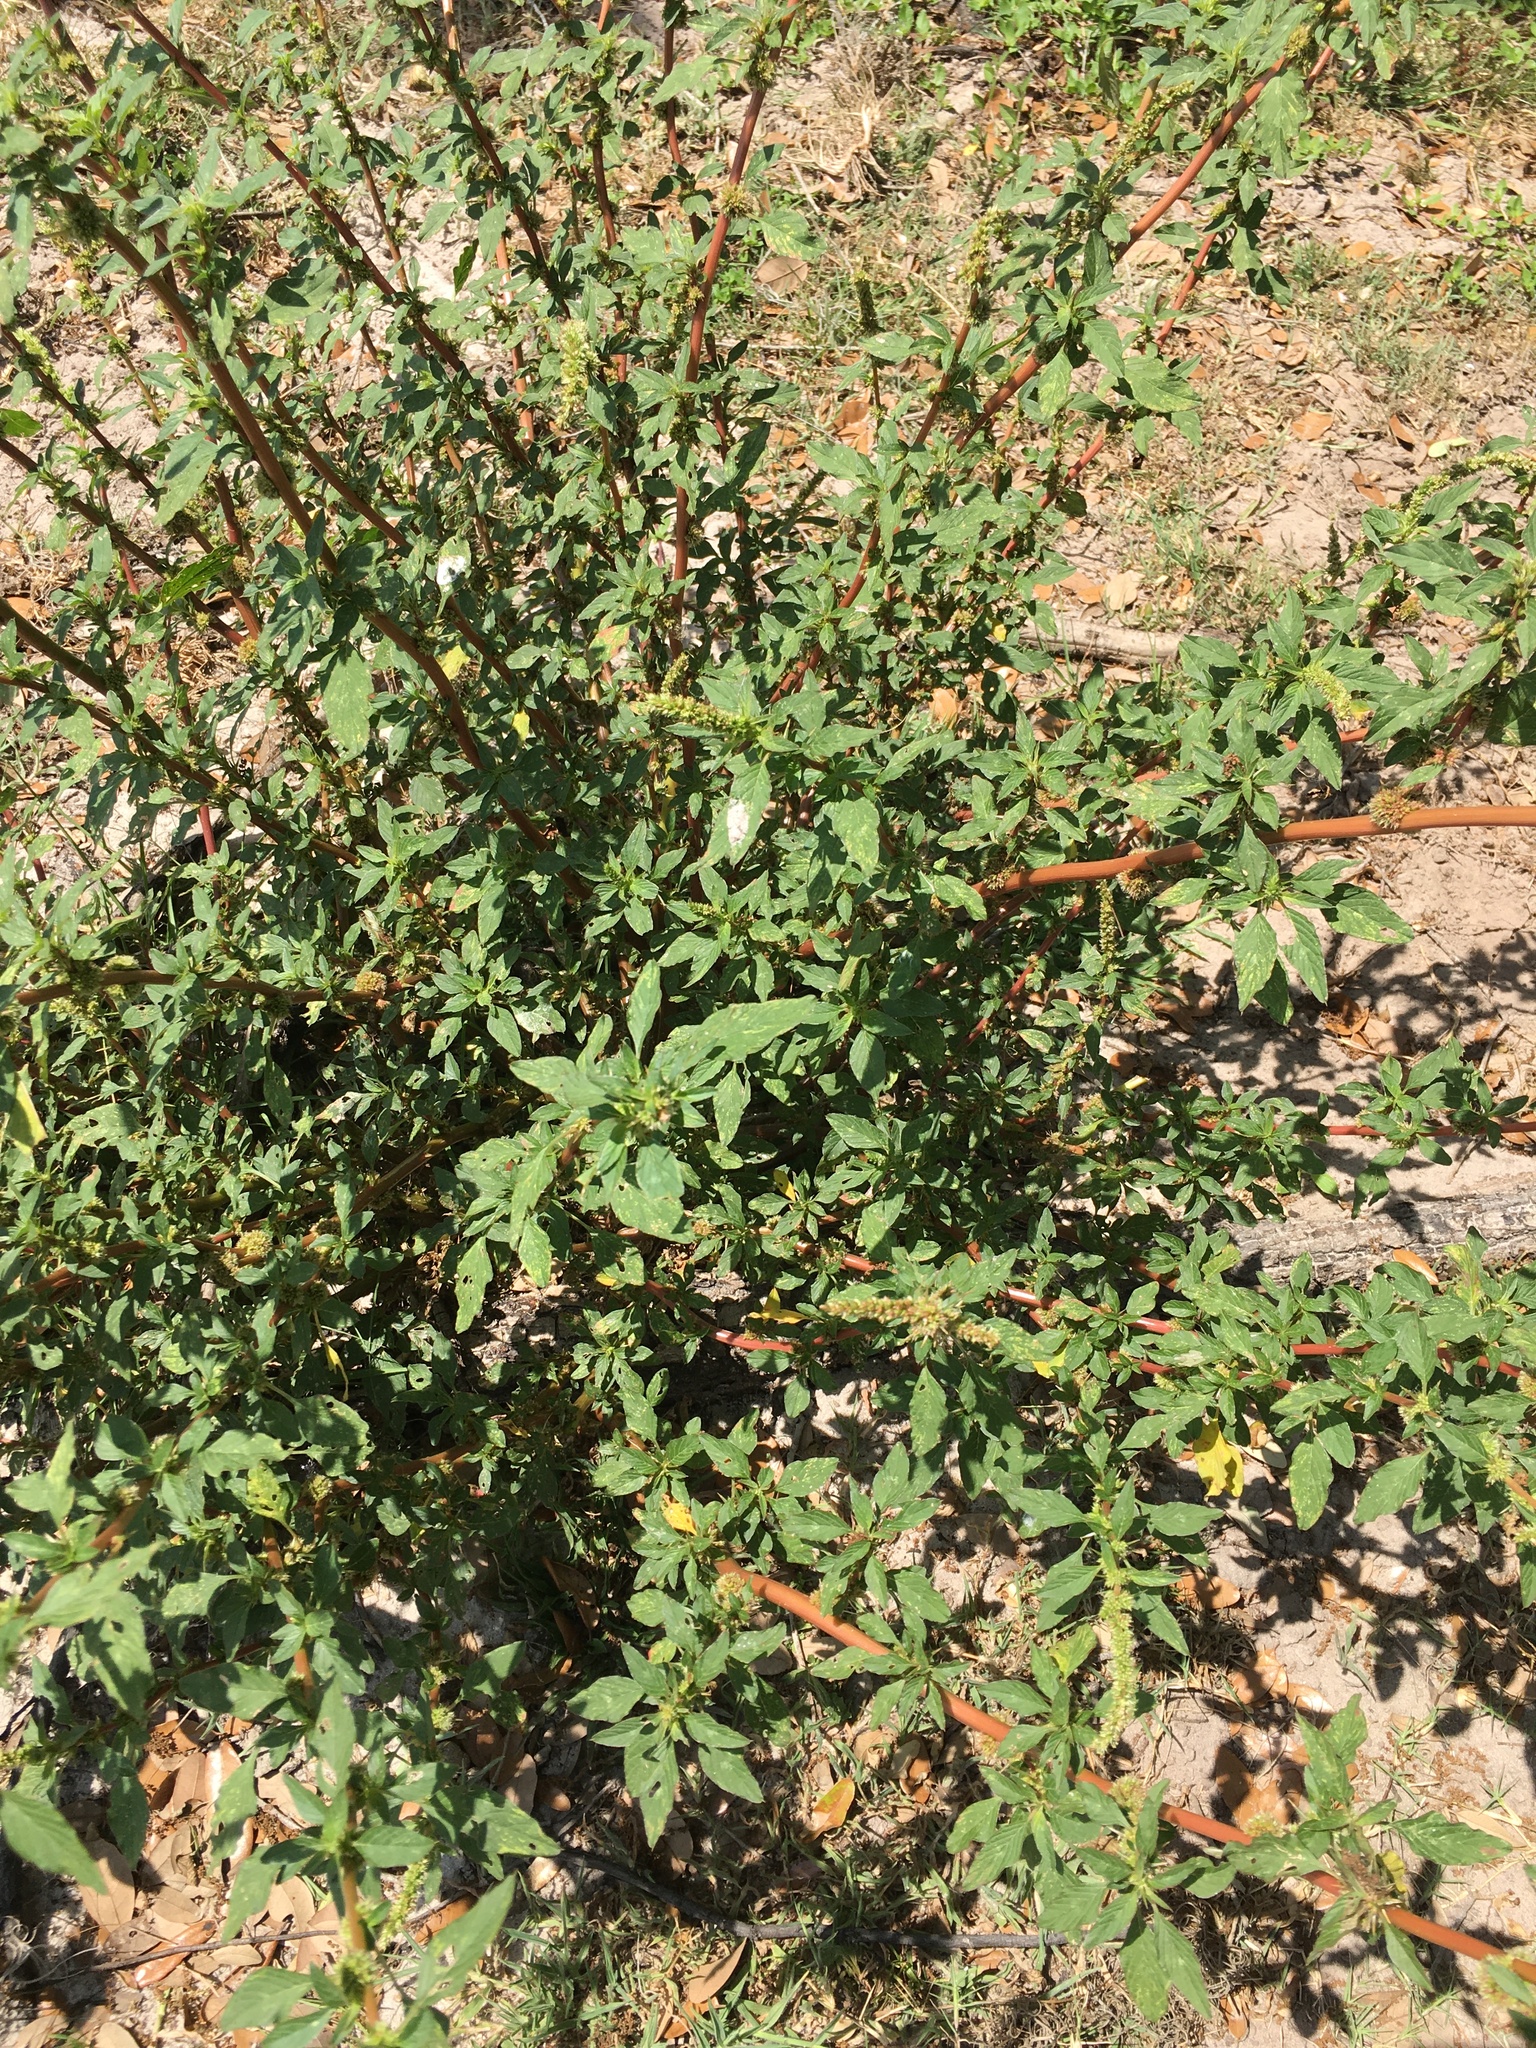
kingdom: Plantae
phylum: Tracheophyta
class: Magnoliopsida
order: Caryophyllales
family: Amaranthaceae
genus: Amaranthus
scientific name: Amaranthus spinosus
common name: Spiny amaranth
